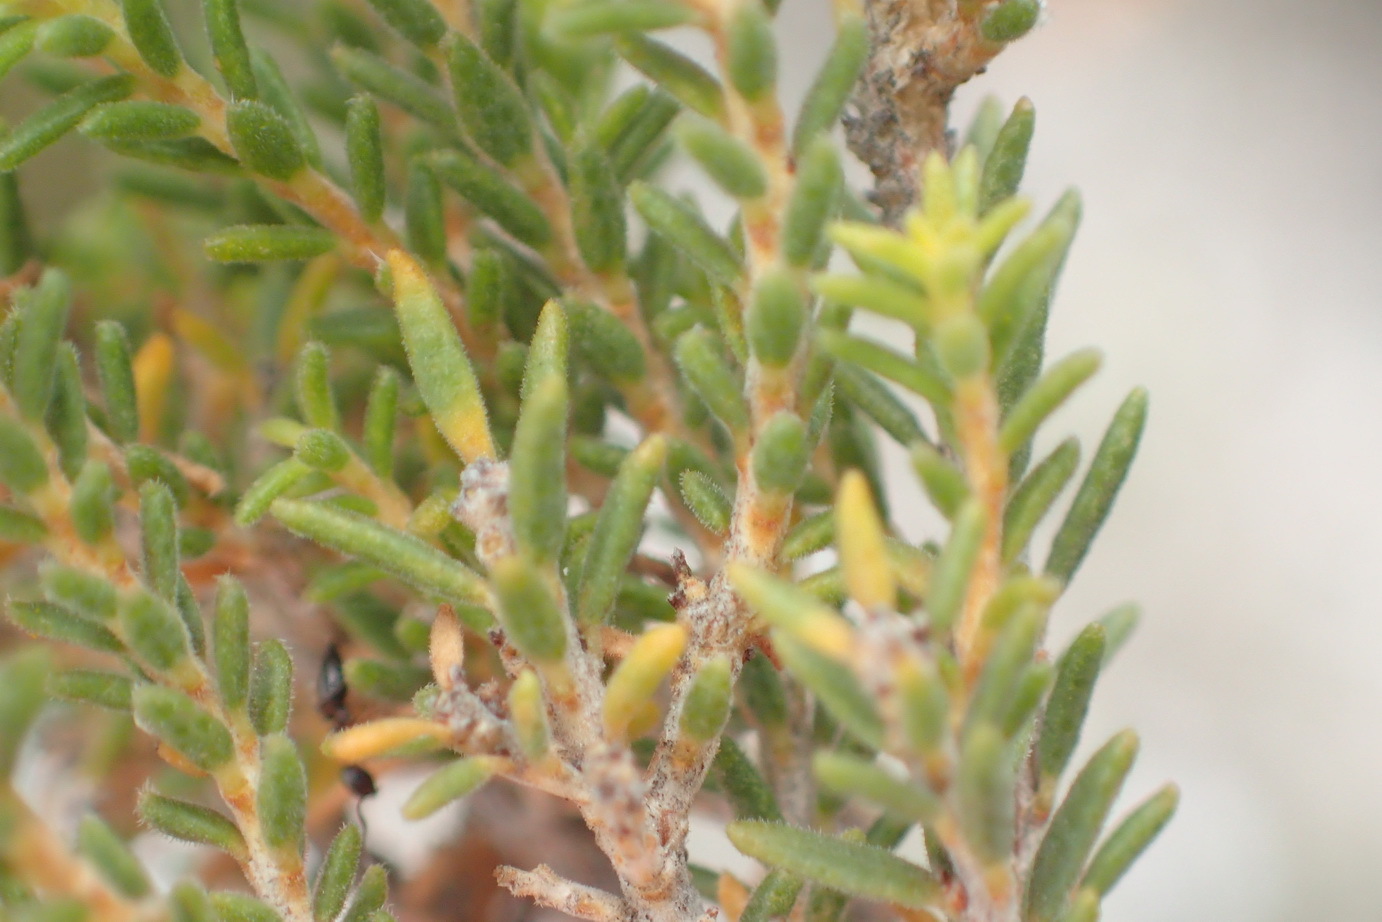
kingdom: Plantae
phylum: Tracheophyta
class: Magnoliopsida
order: Sapindales
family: Rutaceae
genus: Agathosma
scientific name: Agathosma capensis
